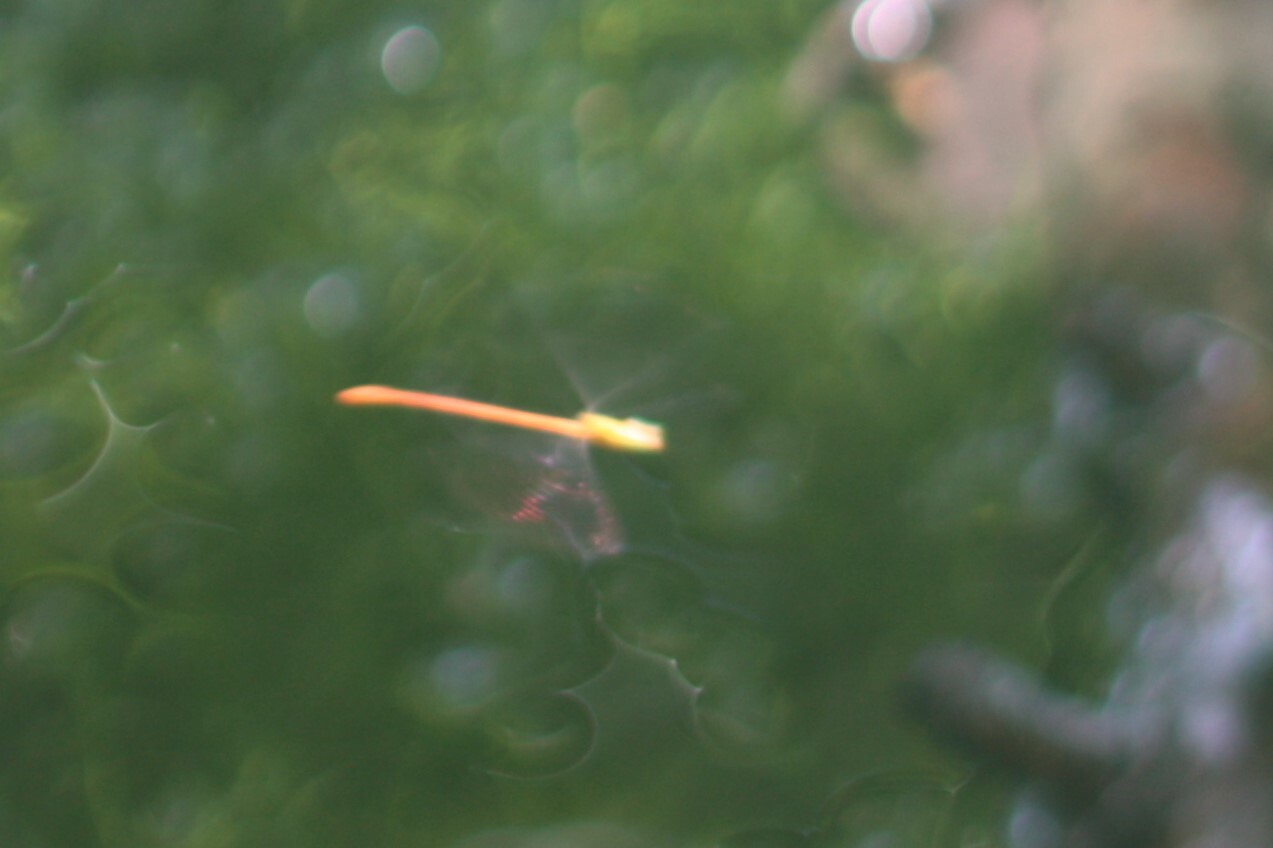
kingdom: Animalia
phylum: Arthropoda
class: Insecta
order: Odonata
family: Coenagrionidae
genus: Ceriagrion
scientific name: Ceriagrion auranticum
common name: Orange-tailed sprite
